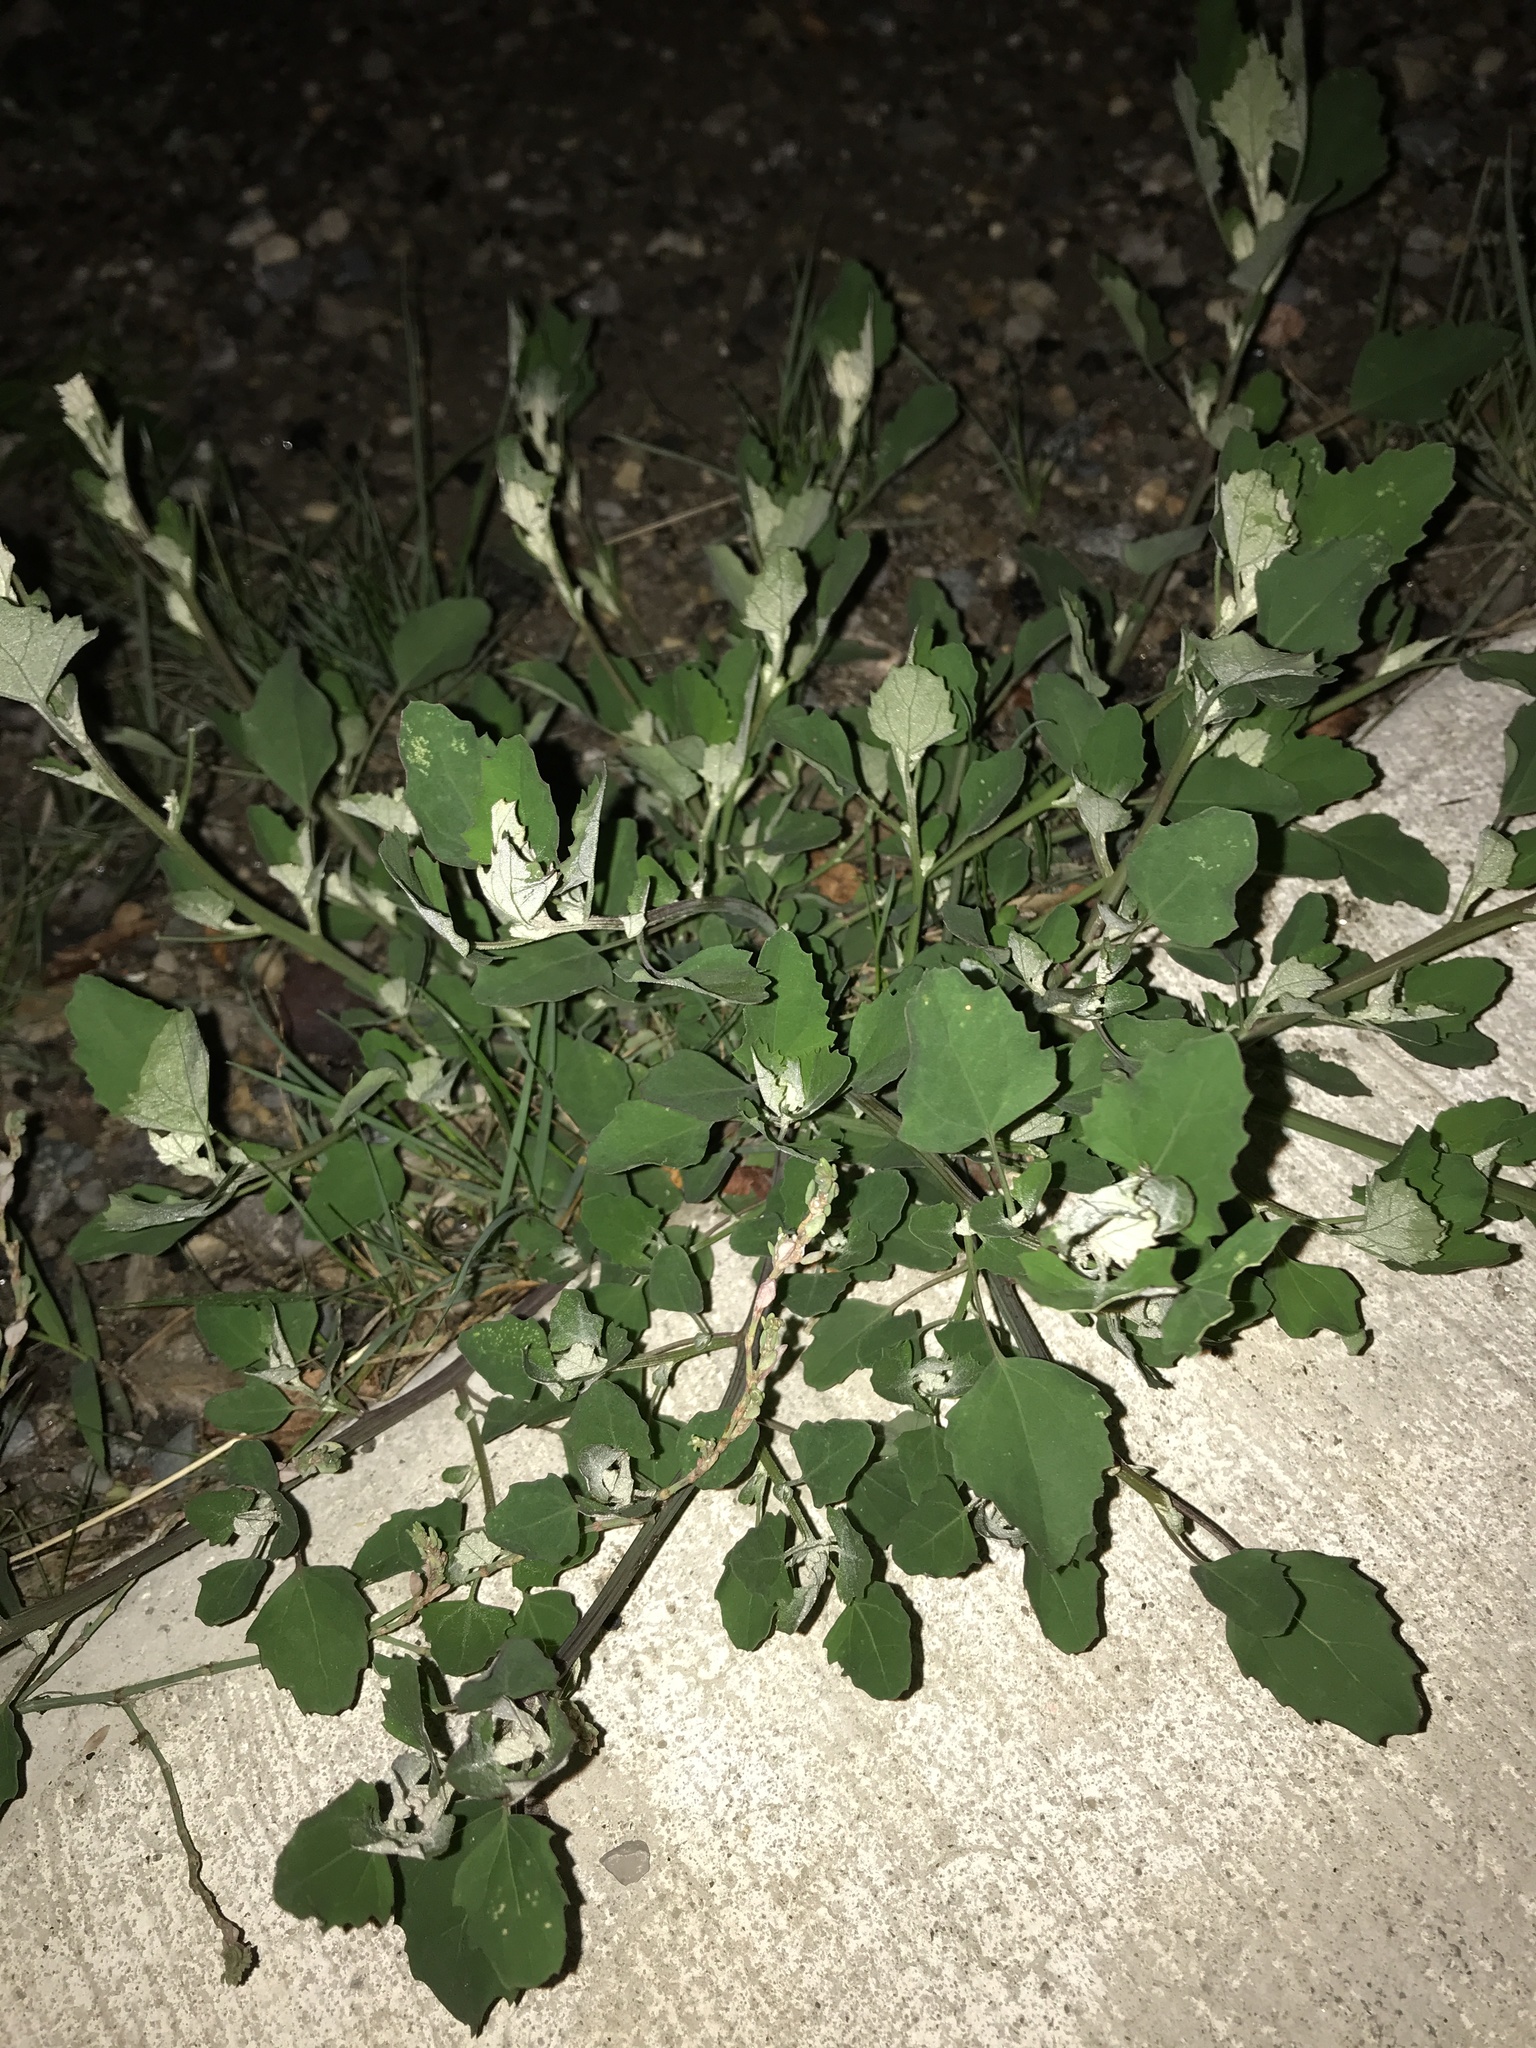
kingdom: Plantae
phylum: Tracheophyta
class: Magnoliopsida
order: Caryophyllales
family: Amaranthaceae
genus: Chenopodium
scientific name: Chenopodium album
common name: Fat-hen
